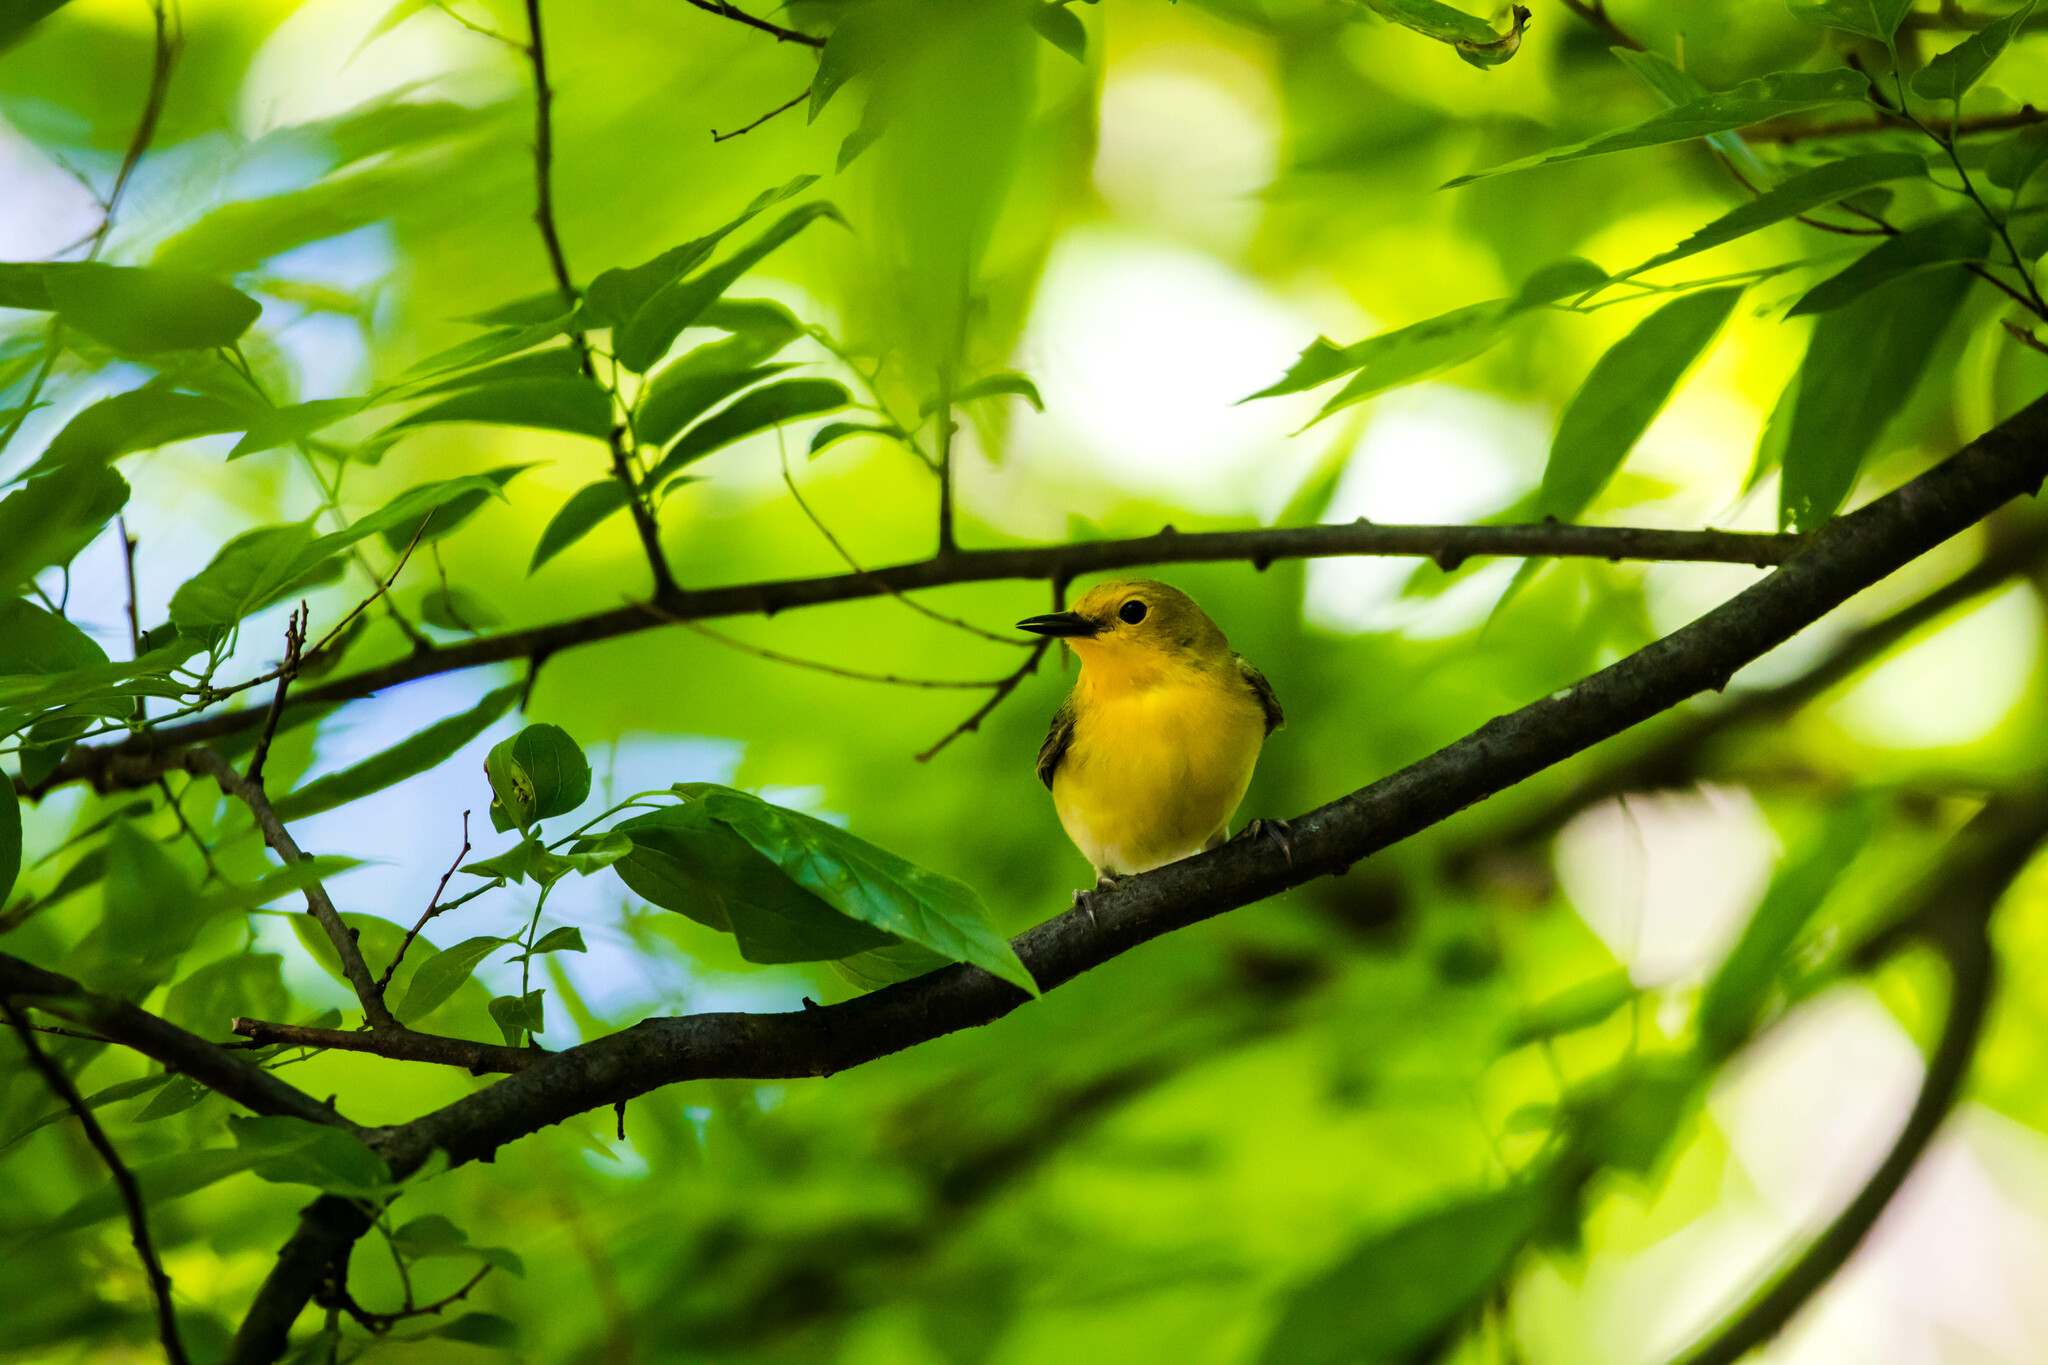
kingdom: Animalia
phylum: Chordata
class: Aves
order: Passeriformes
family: Parulidae
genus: Protonotaria
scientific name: Protonotaria citrea
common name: Prothonotary warbler
